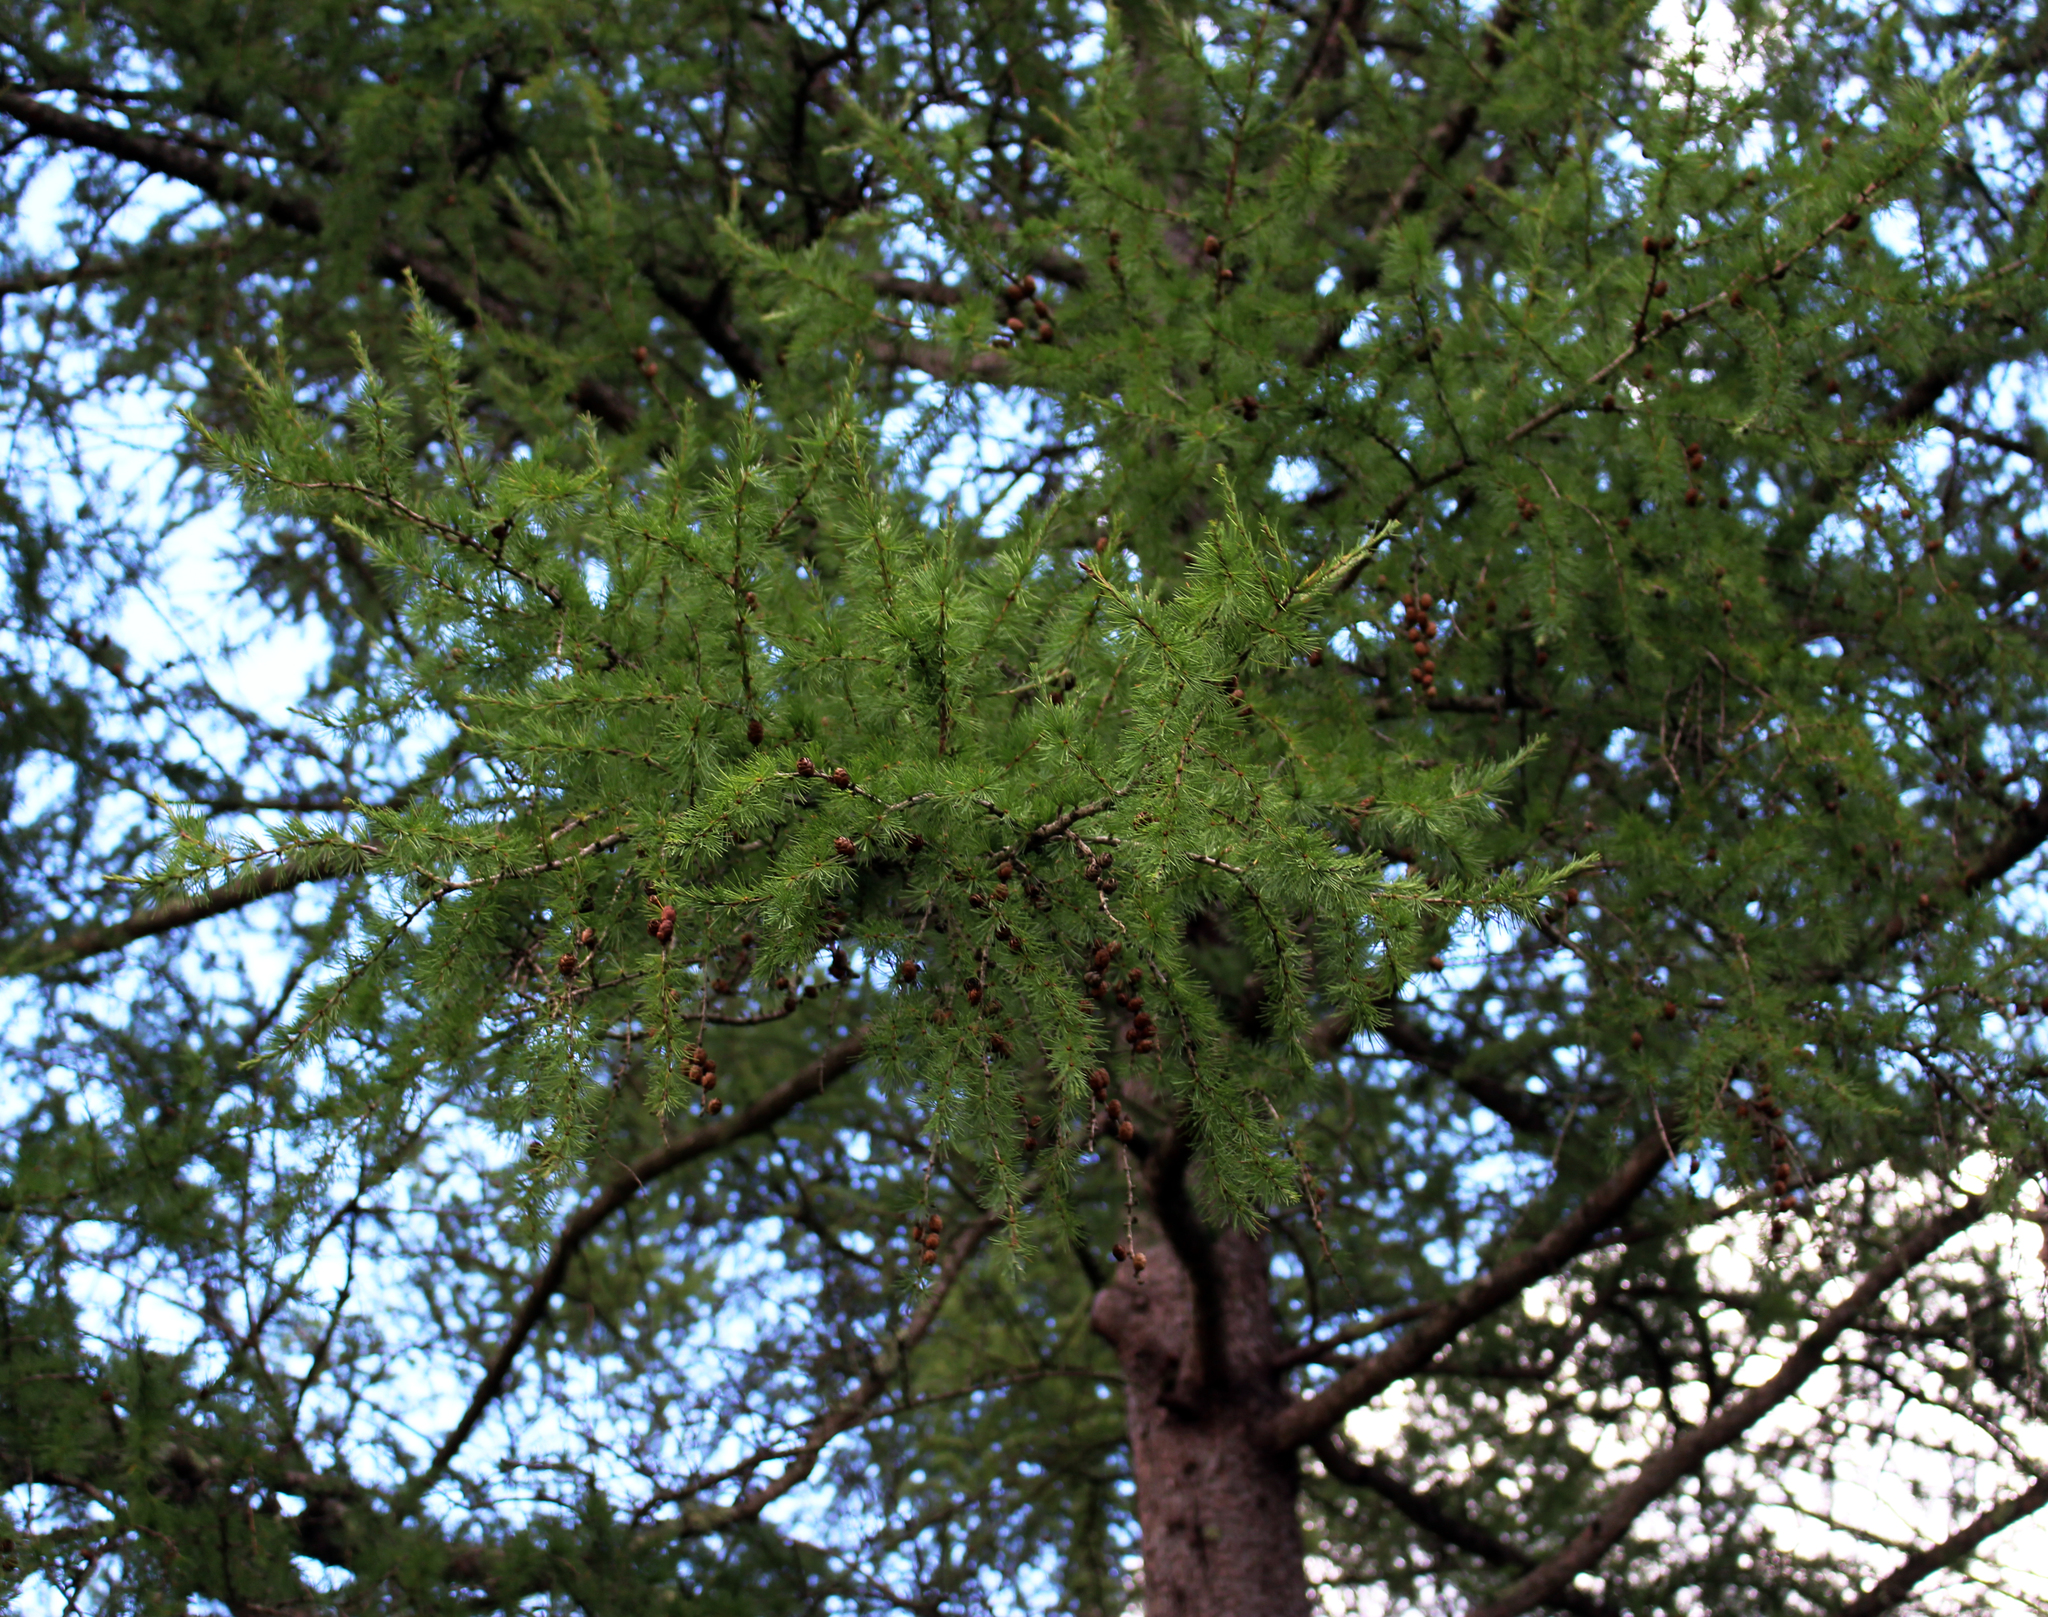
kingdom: Plantae
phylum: Tracheophyta
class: Pinopsida
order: Pinales
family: Pinaceae
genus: Larix
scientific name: Larix laricina
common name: American larch
